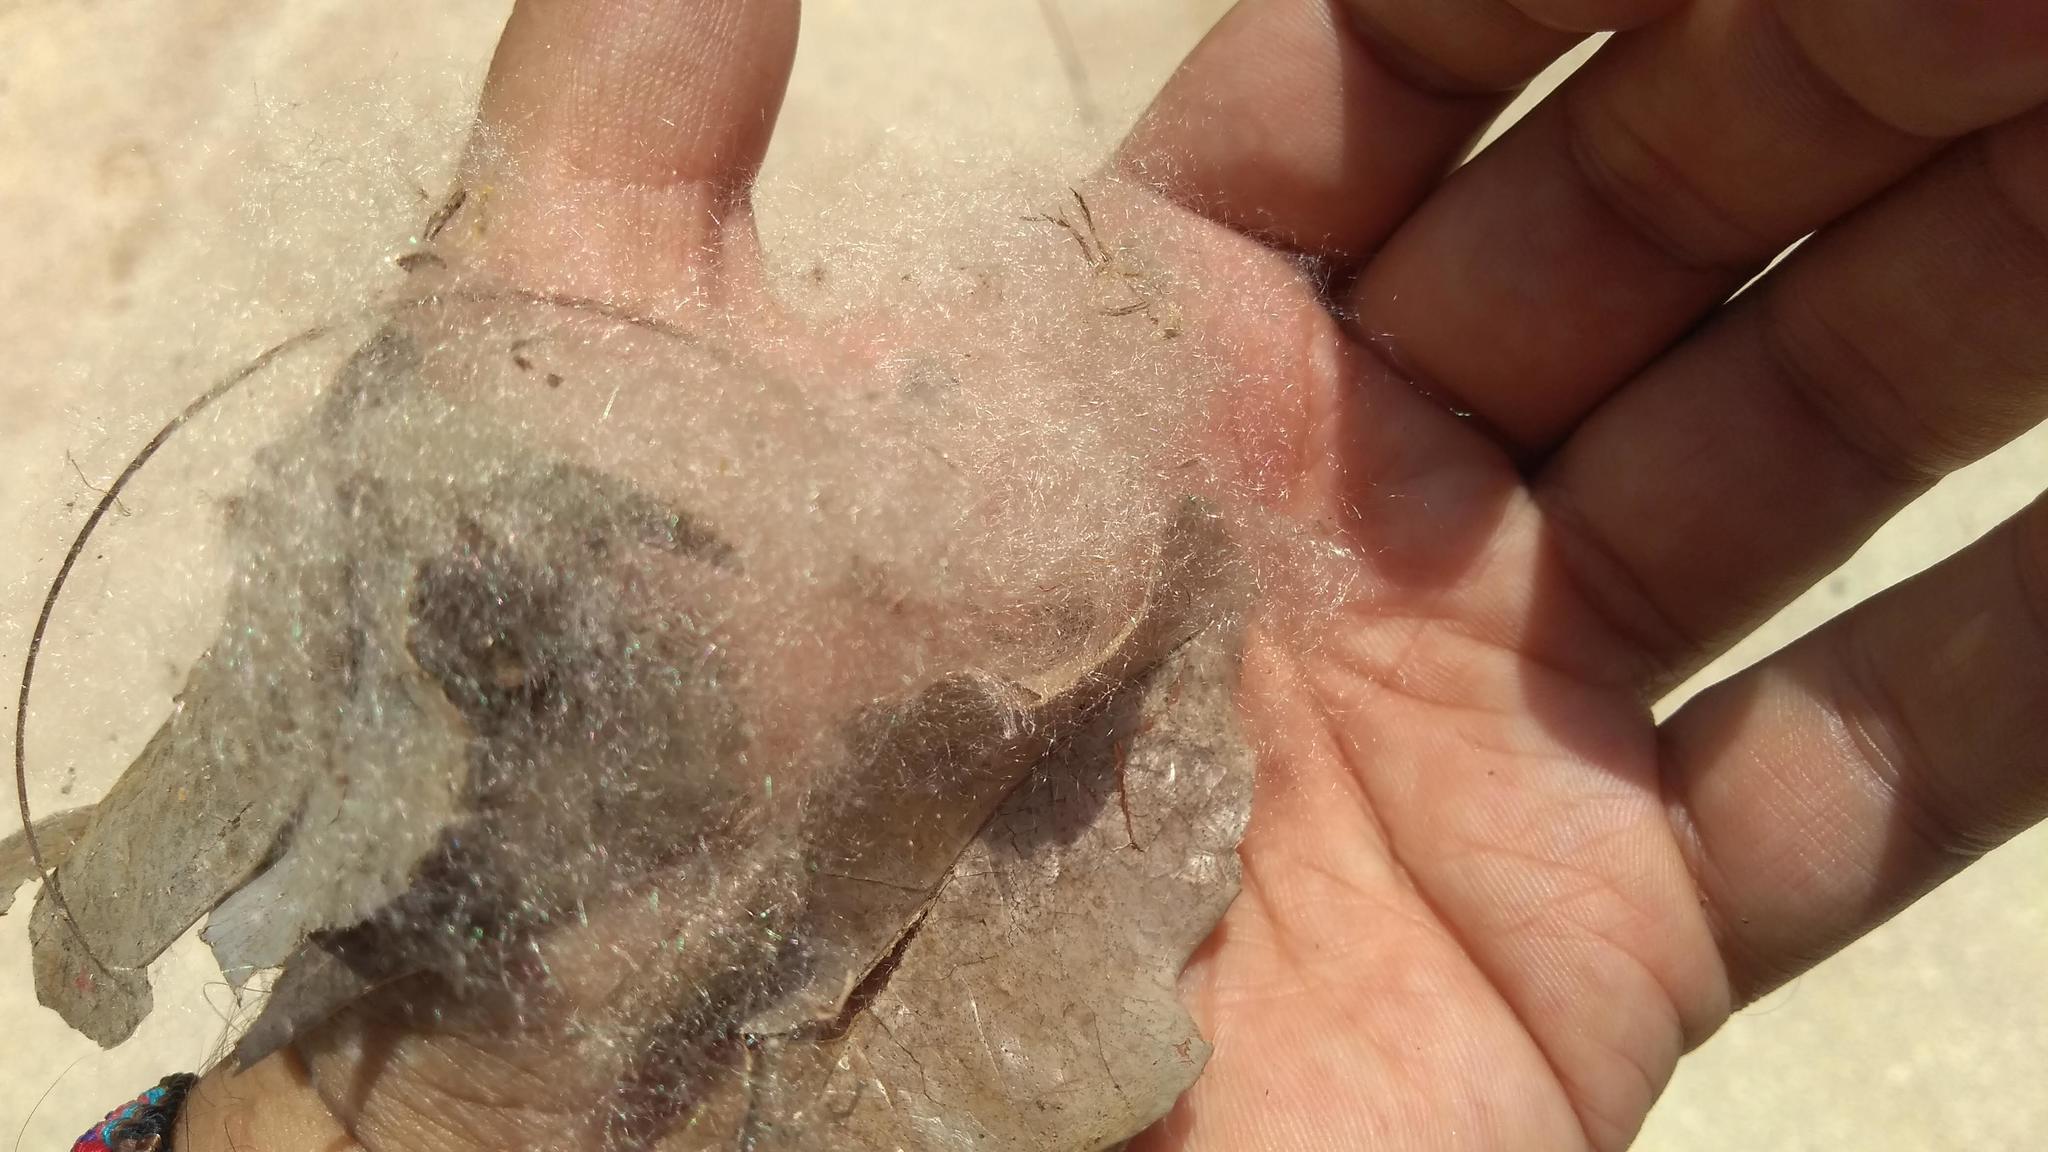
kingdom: Plantae
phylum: Tracheophyta
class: Magnoliopsida
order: Malvales
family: Malvaceae
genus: Ceiba
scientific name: Ceiba pentandra
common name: Kapok
